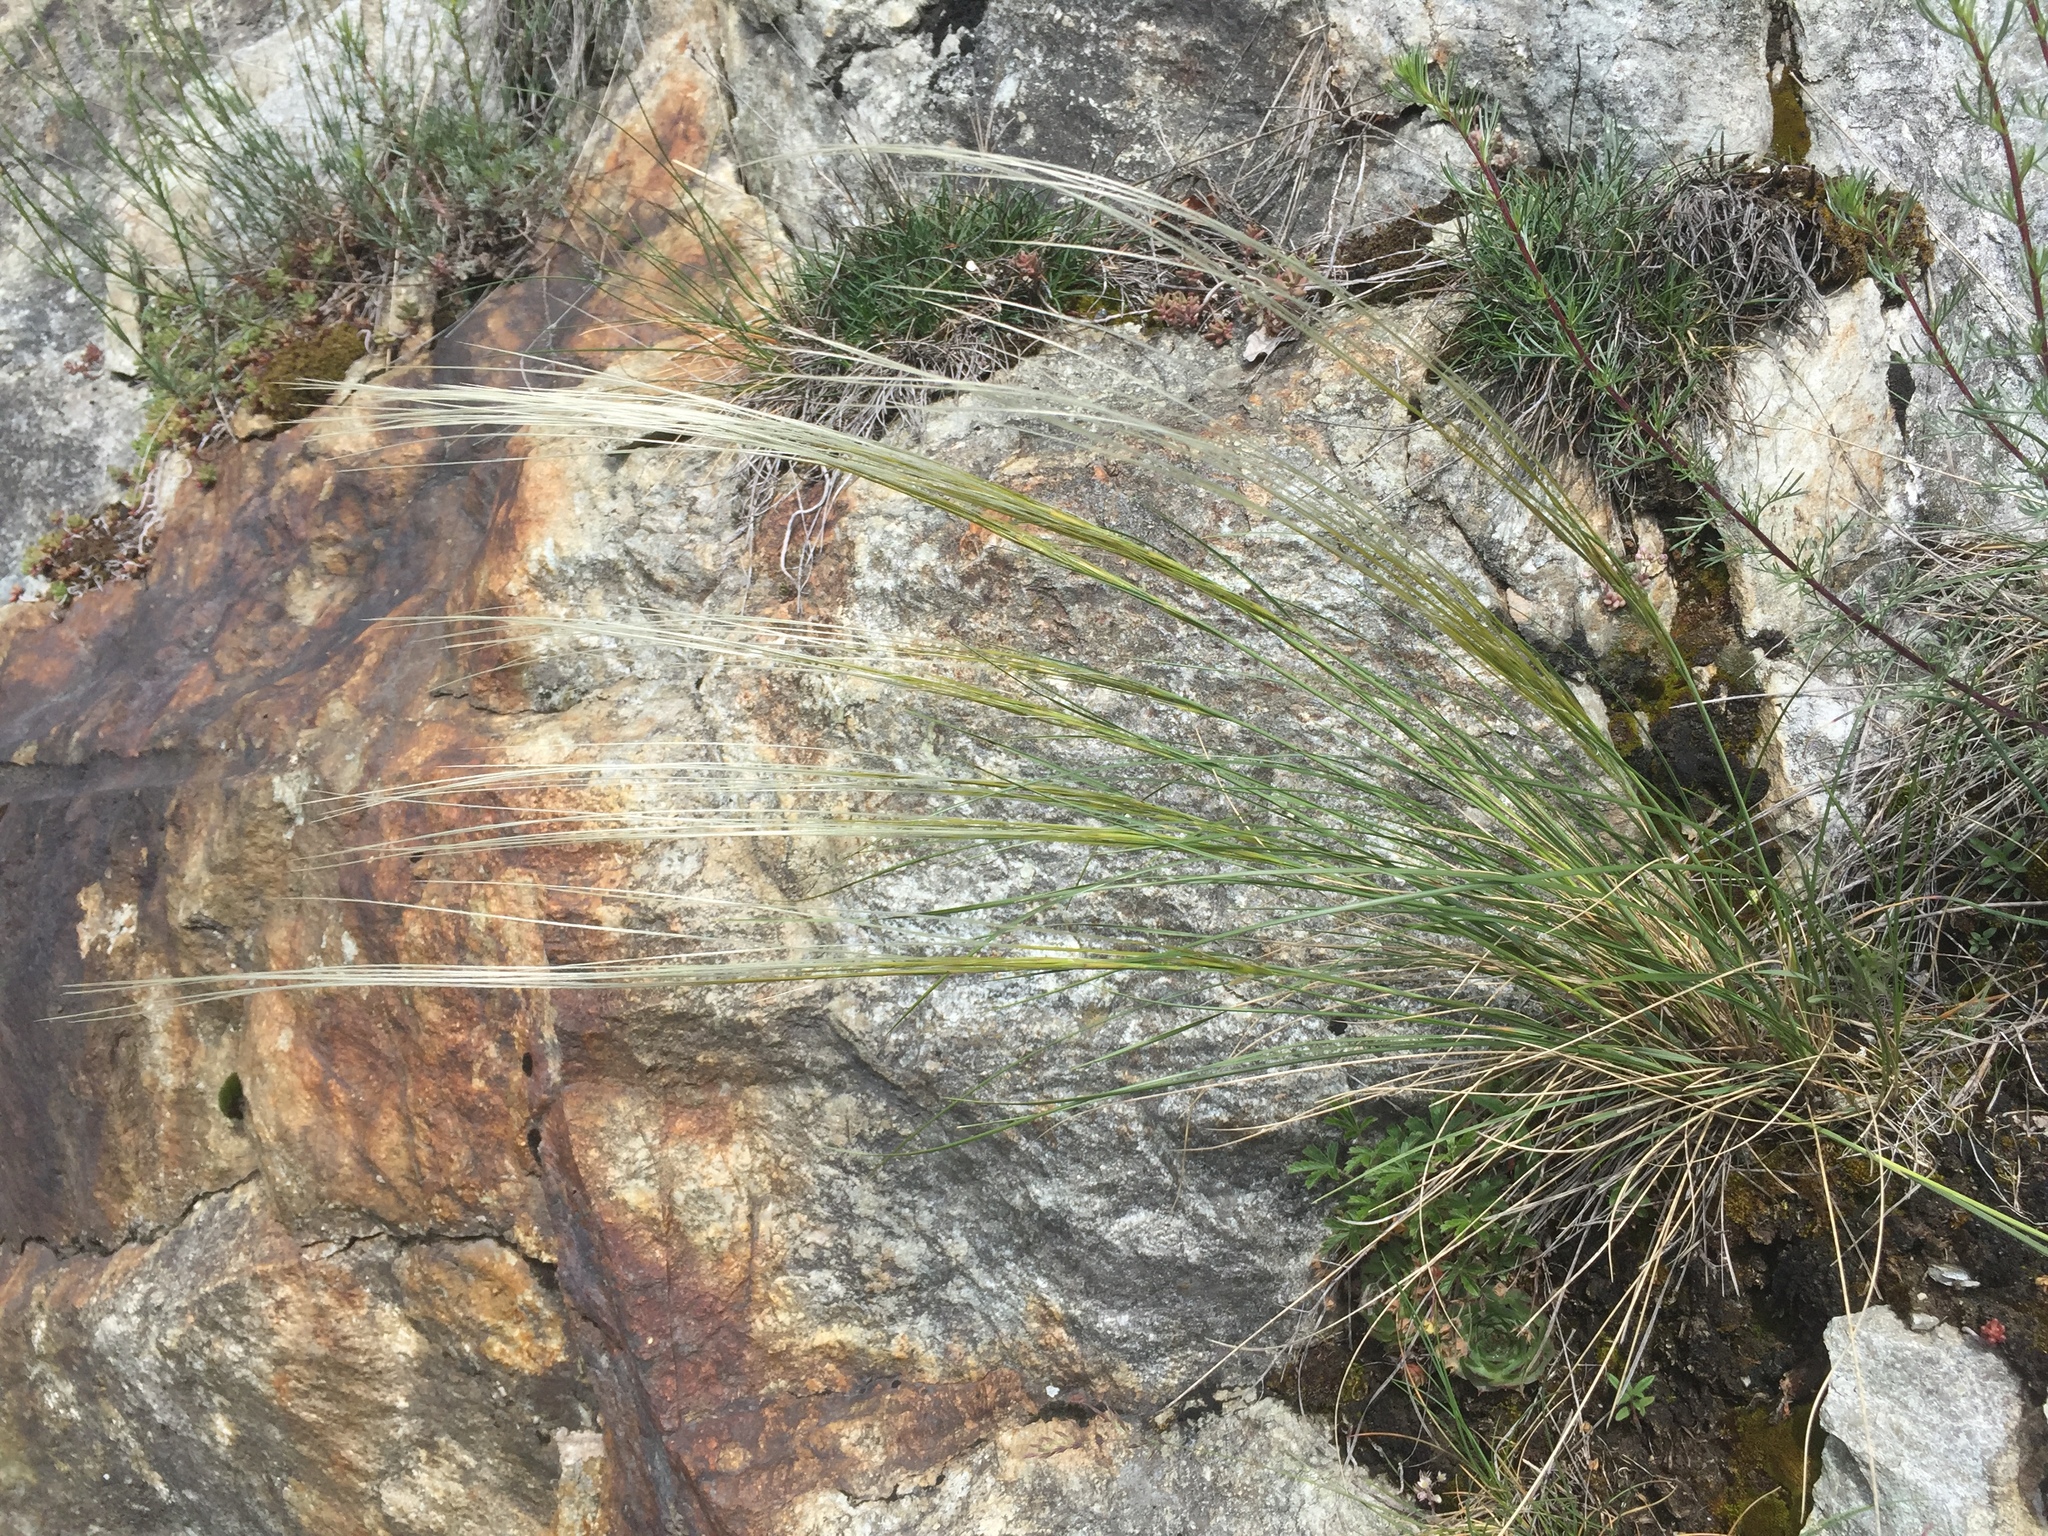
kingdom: Plantae
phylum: Tracheophyta
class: Liliopsida
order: Poales
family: Poaceae
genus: Stipa
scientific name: Stipa pennata
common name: European feather grass
